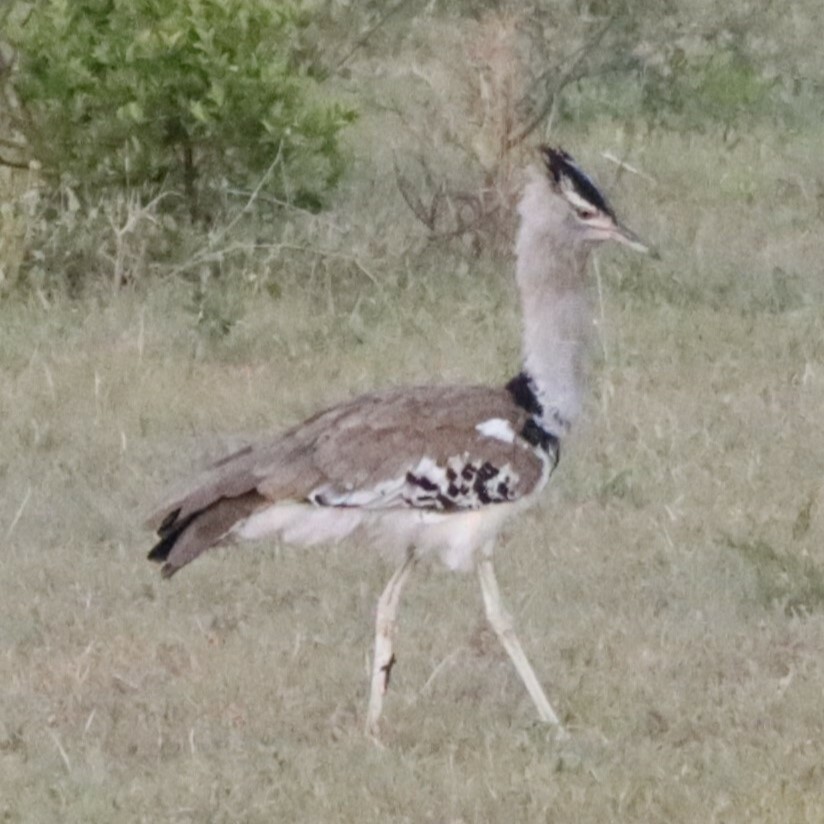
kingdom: Animalia
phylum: Chordata
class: Aves
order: Otidiformes
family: Otididae
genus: Ardeotis
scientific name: Ardeotis kori
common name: Kori bustard
